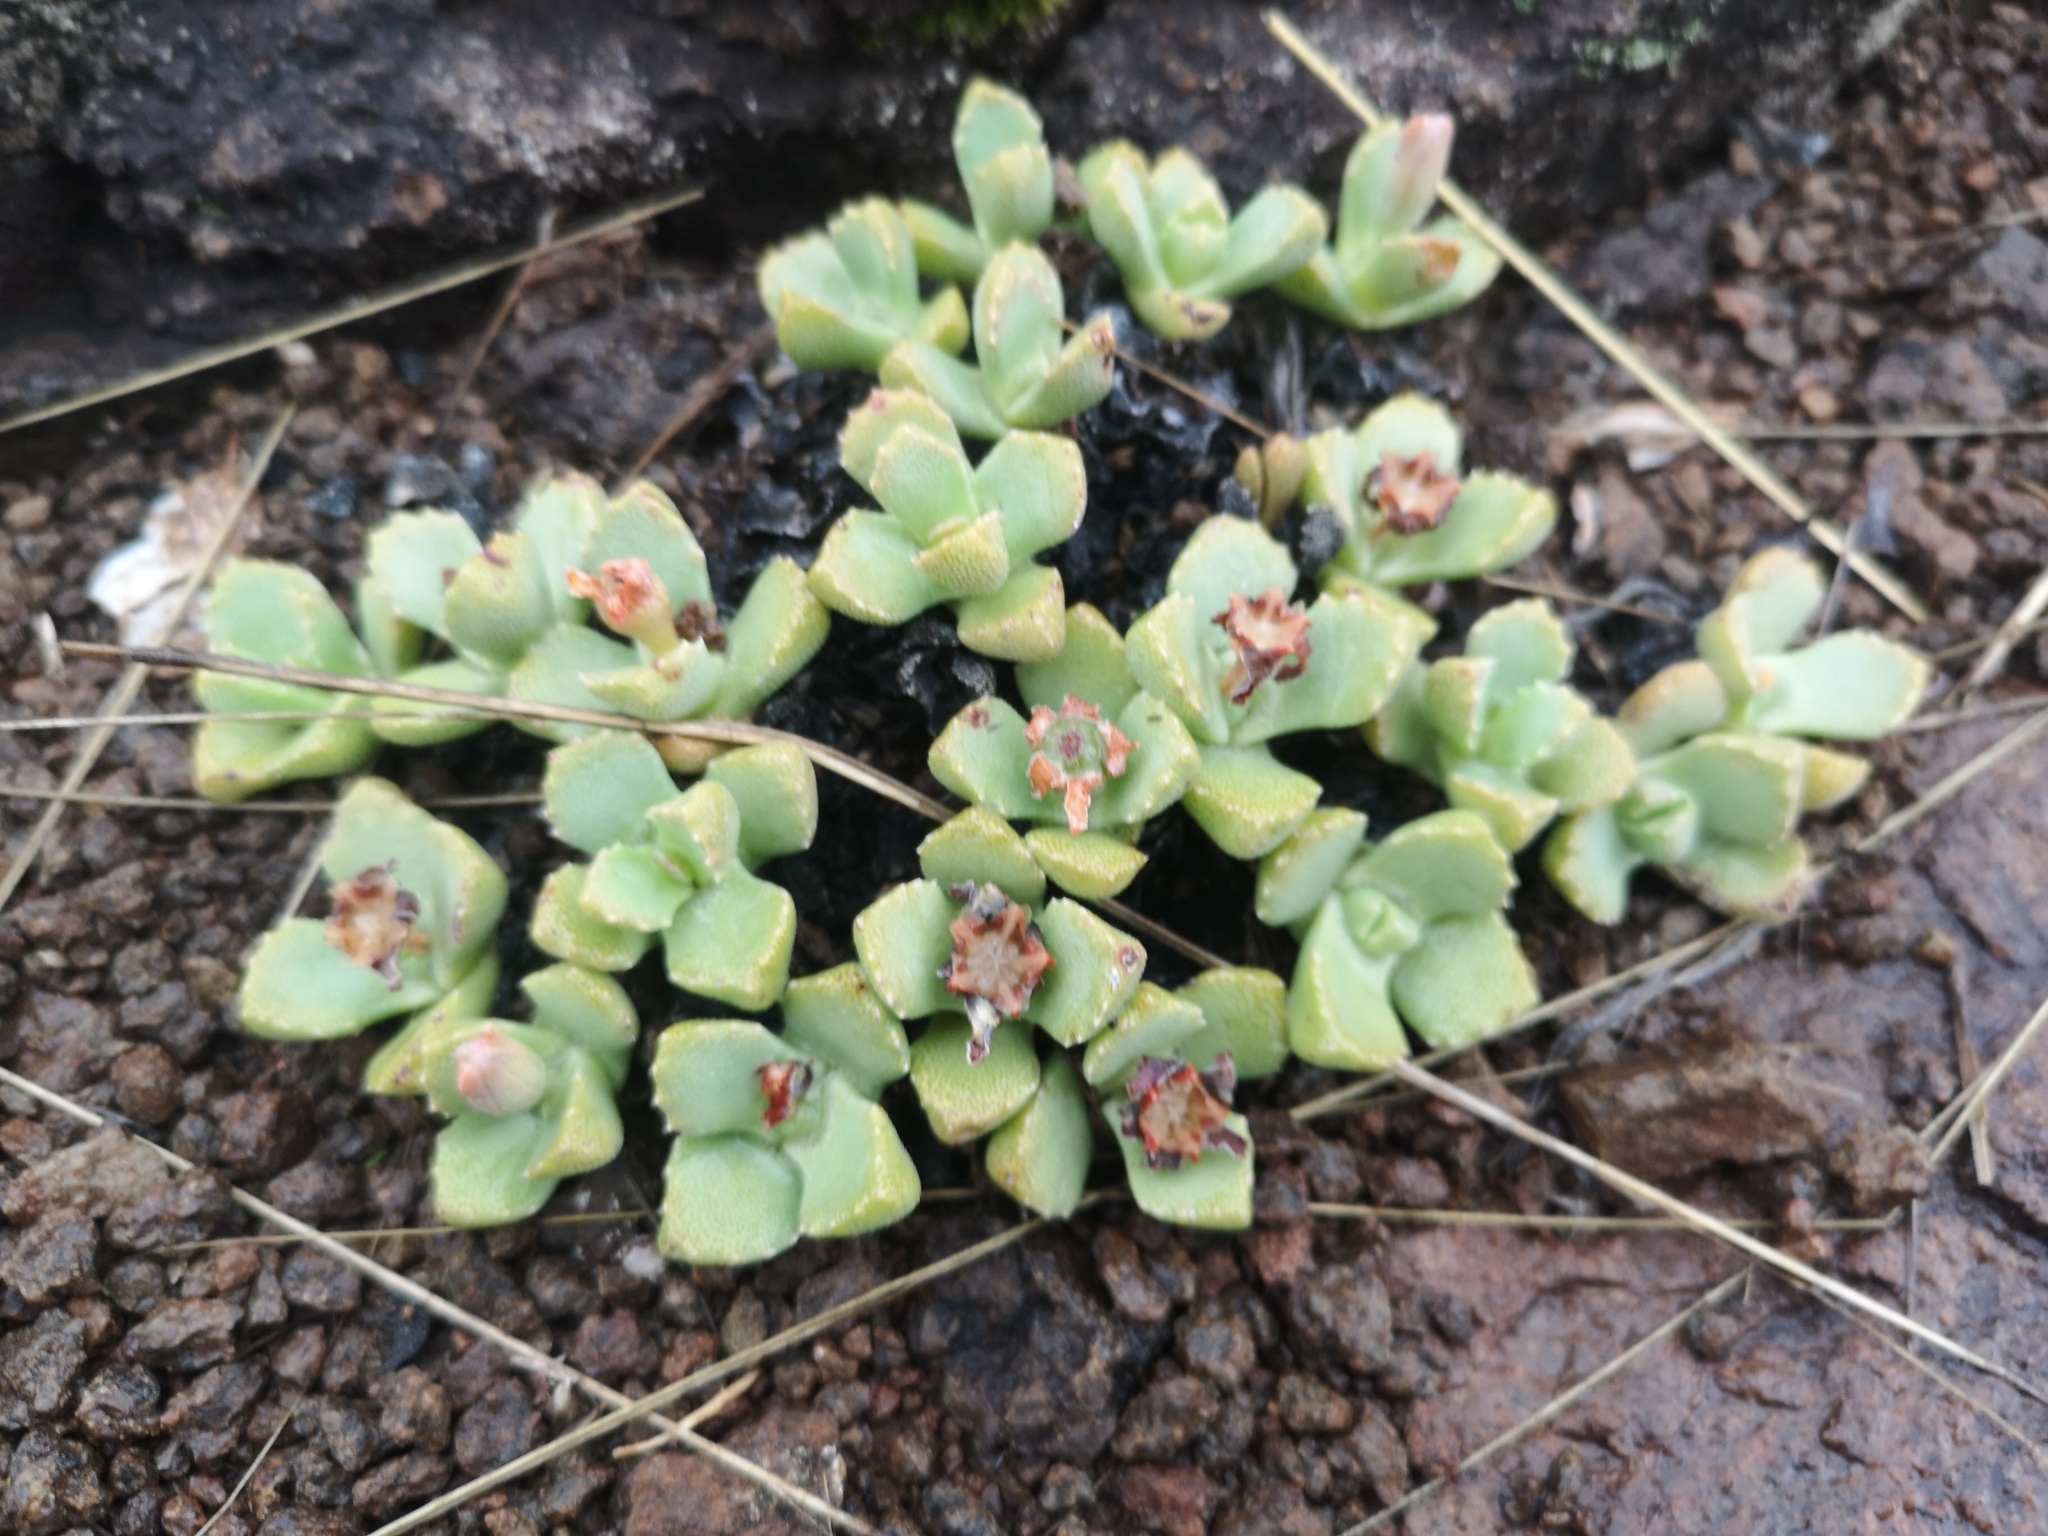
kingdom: Plantae
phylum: Tracheophyta
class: Magnoliopsida
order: Caryophyllales
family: Aizoaceae
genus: Stomatium
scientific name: Stomatium bolusiae
